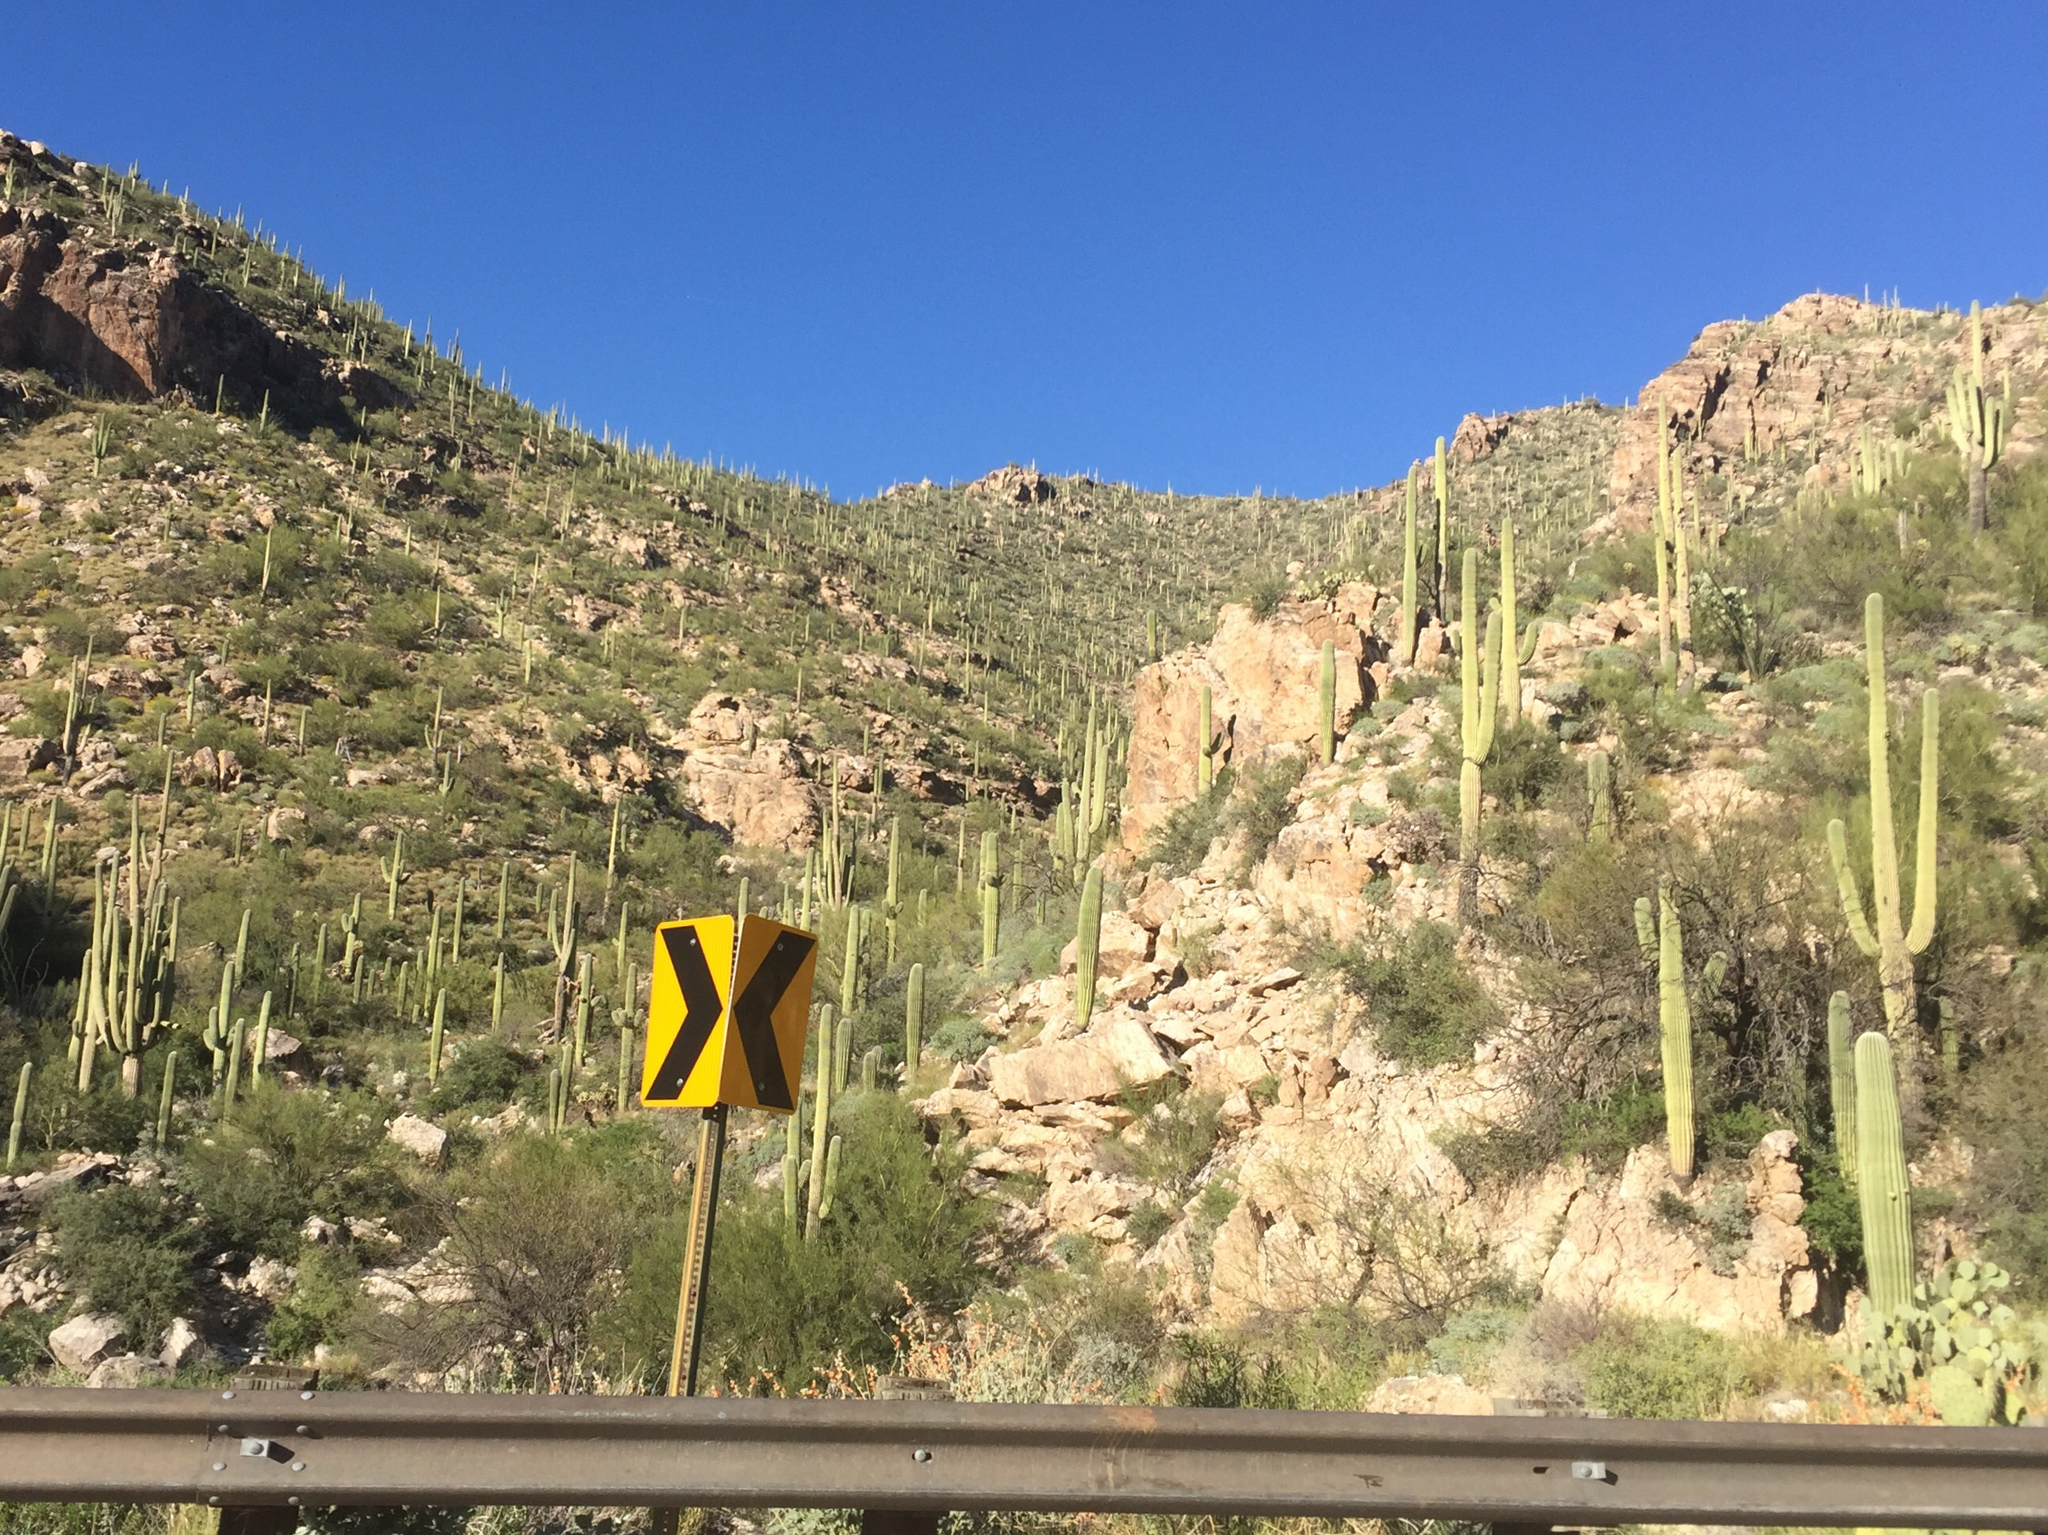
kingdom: Plantae
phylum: Tracheophyta
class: Magnoliopsida
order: Caryophyllales
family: Cactaceae
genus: Carnegiea
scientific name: Carnegiea gigantea
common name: Saguaro
